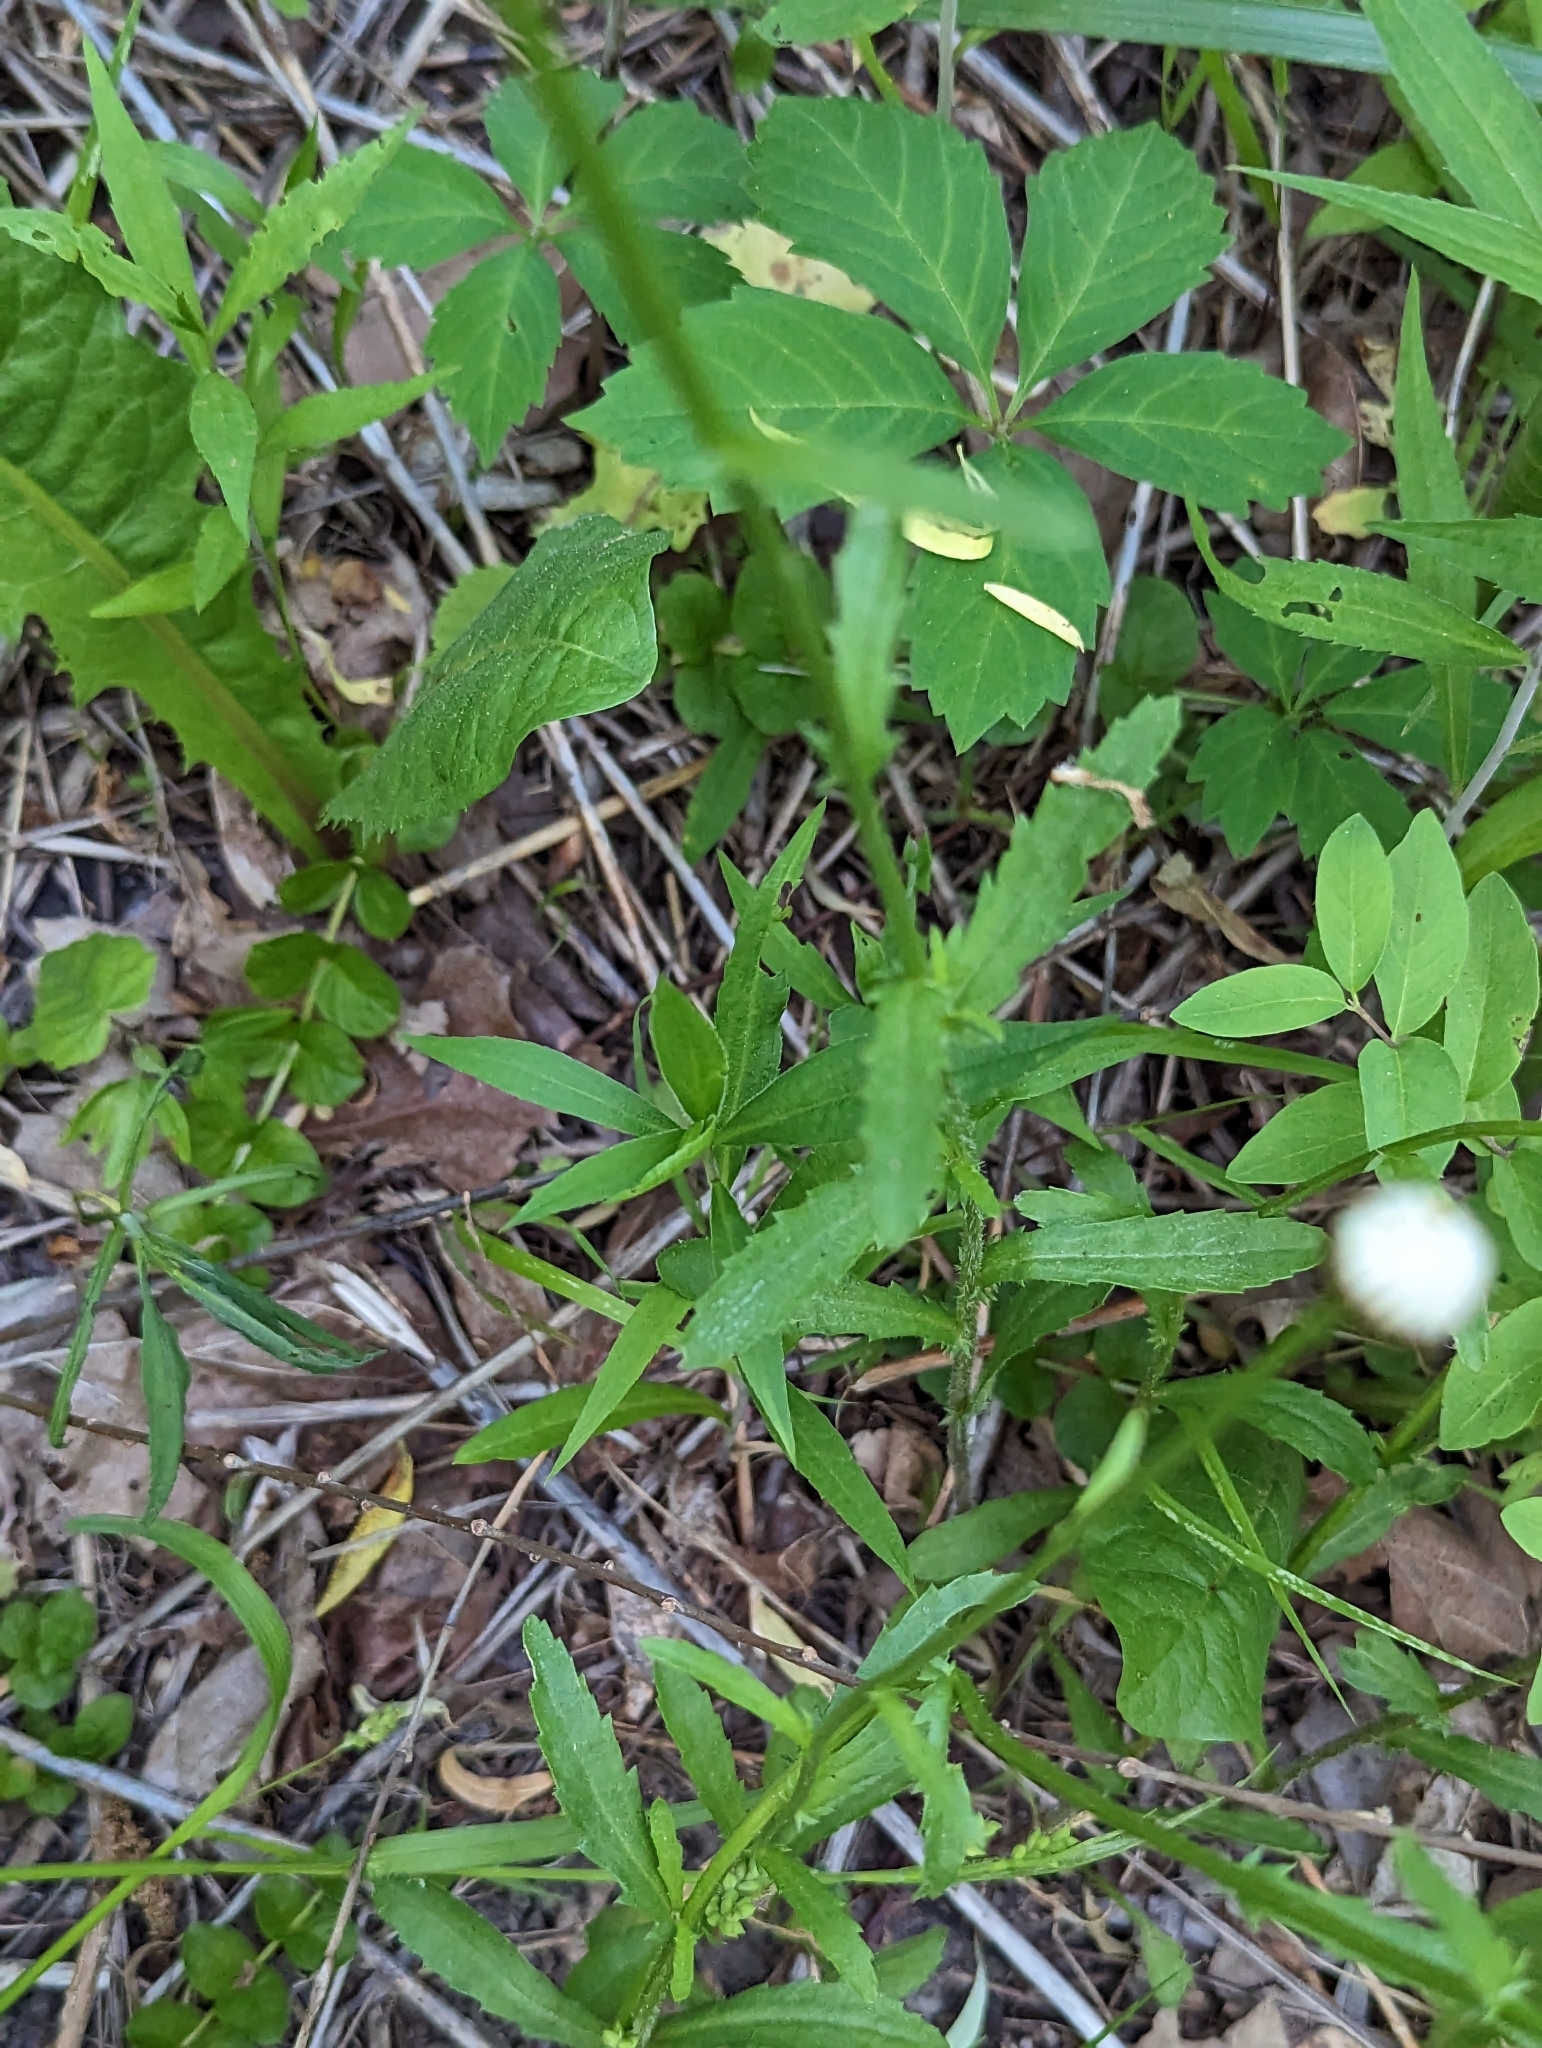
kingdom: Plantae
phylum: Tracheophyta
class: Magnoliopsida
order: Asterales
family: Asteraceae
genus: Leucanthemum
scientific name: Leucanthemum vulgare
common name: Oxeye daisy
